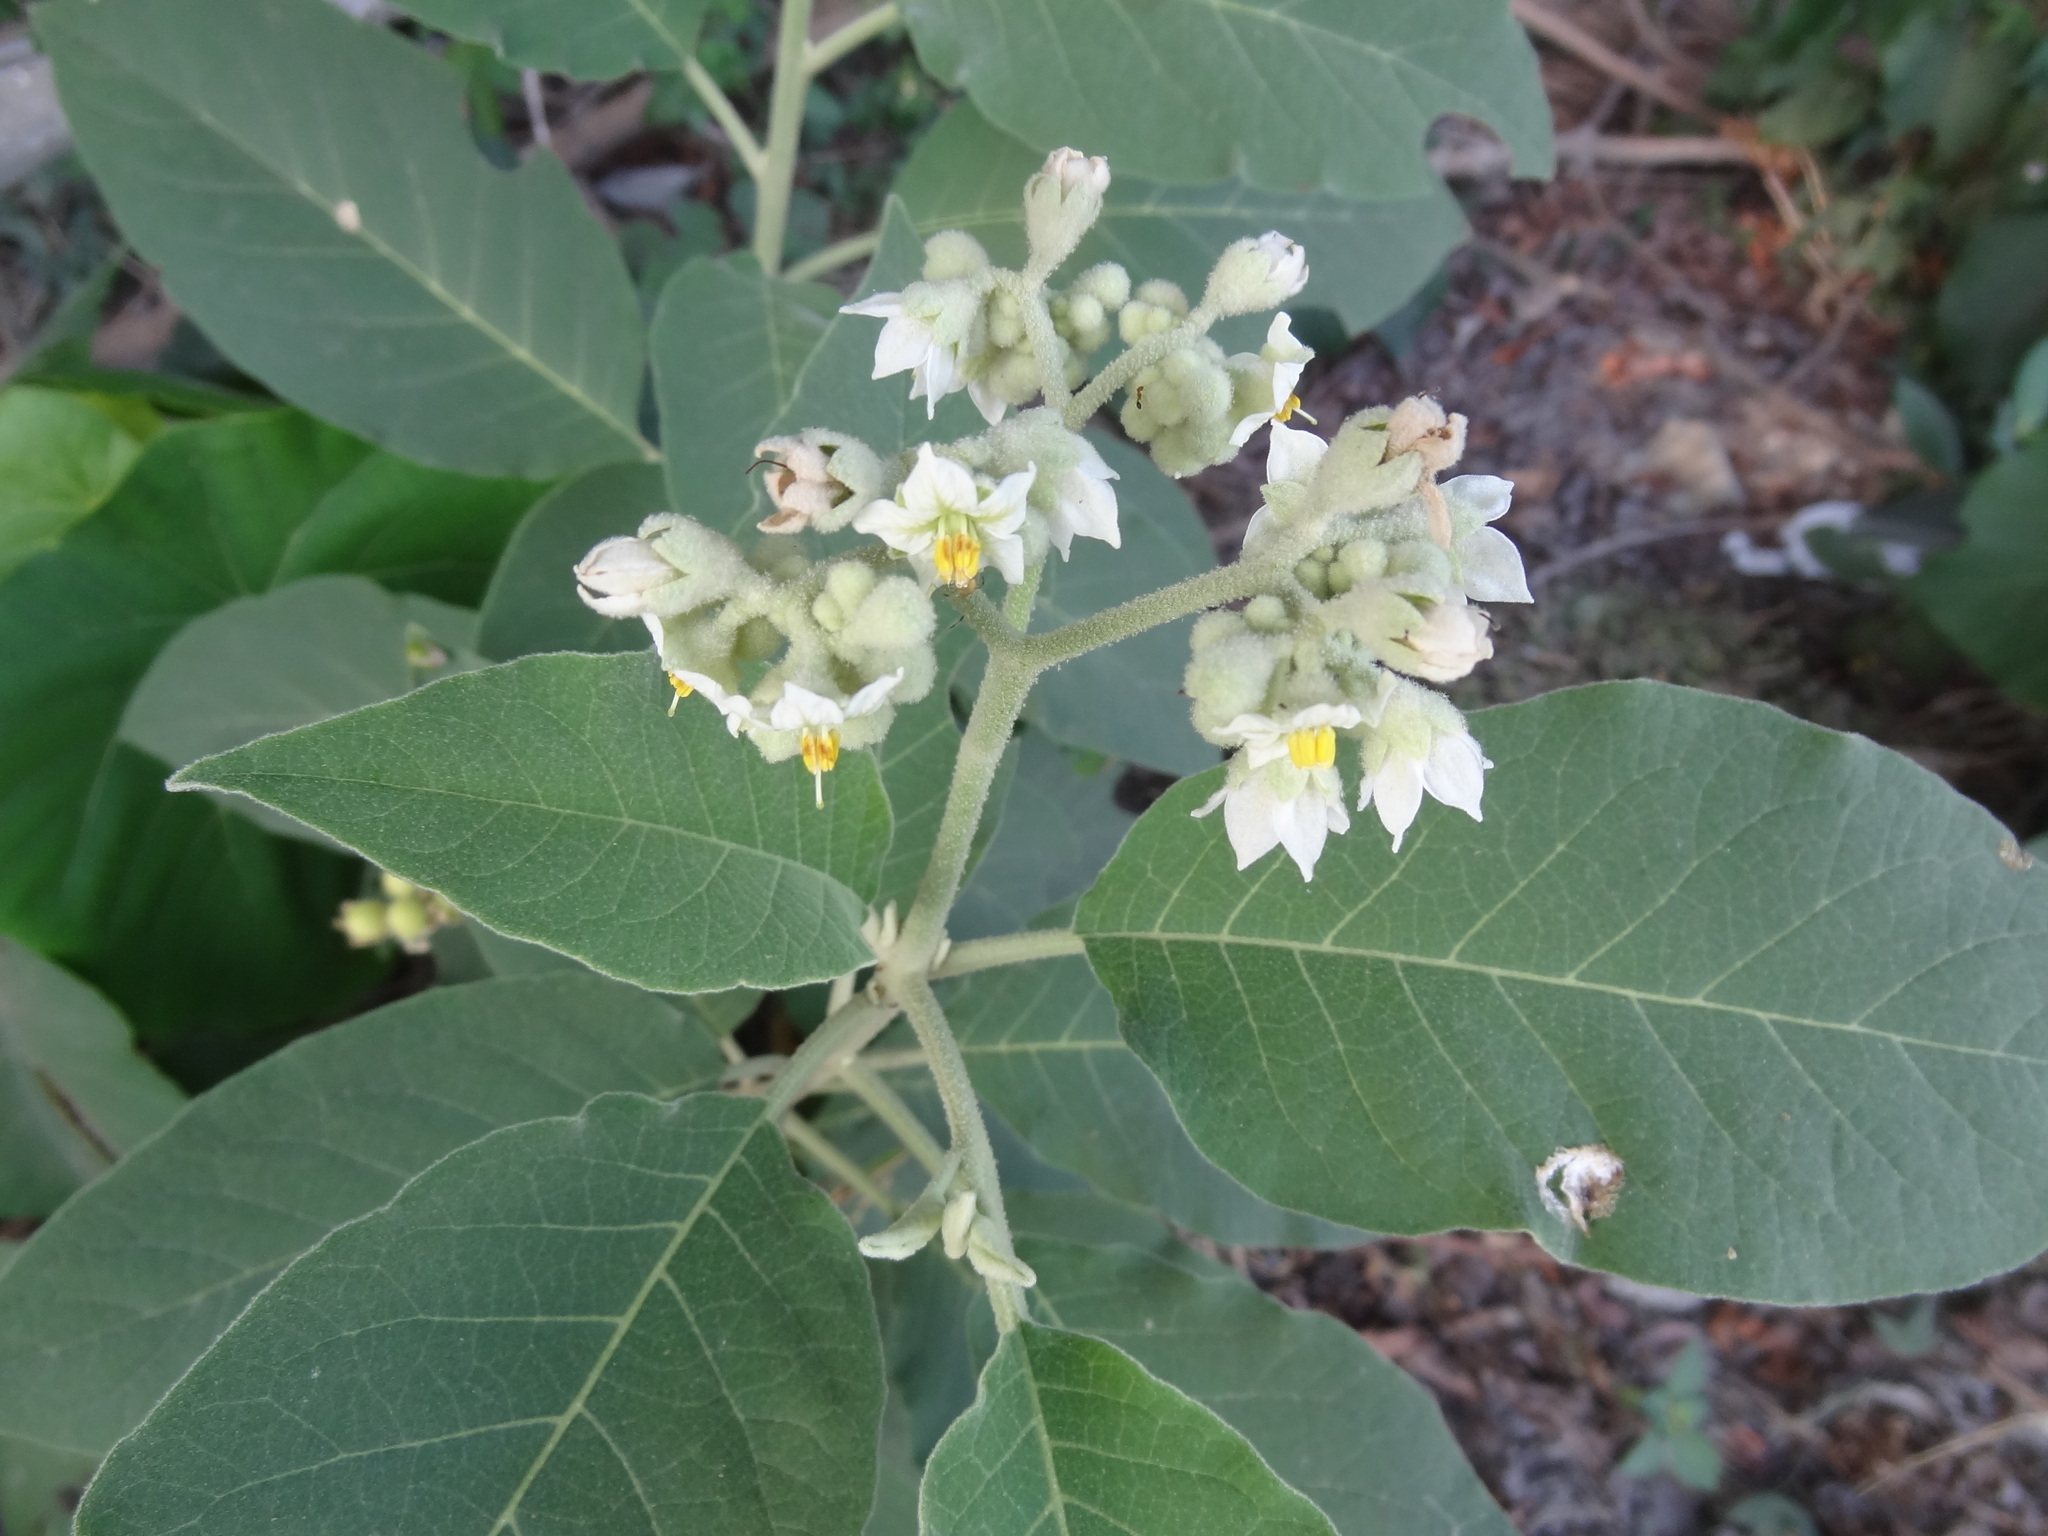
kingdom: Plantae
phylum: Tracheophyta
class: Magnoliopsida
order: Solanales
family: Solanaceae
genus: Solanum
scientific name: Solanum erianthum
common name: Tobacco-tree
